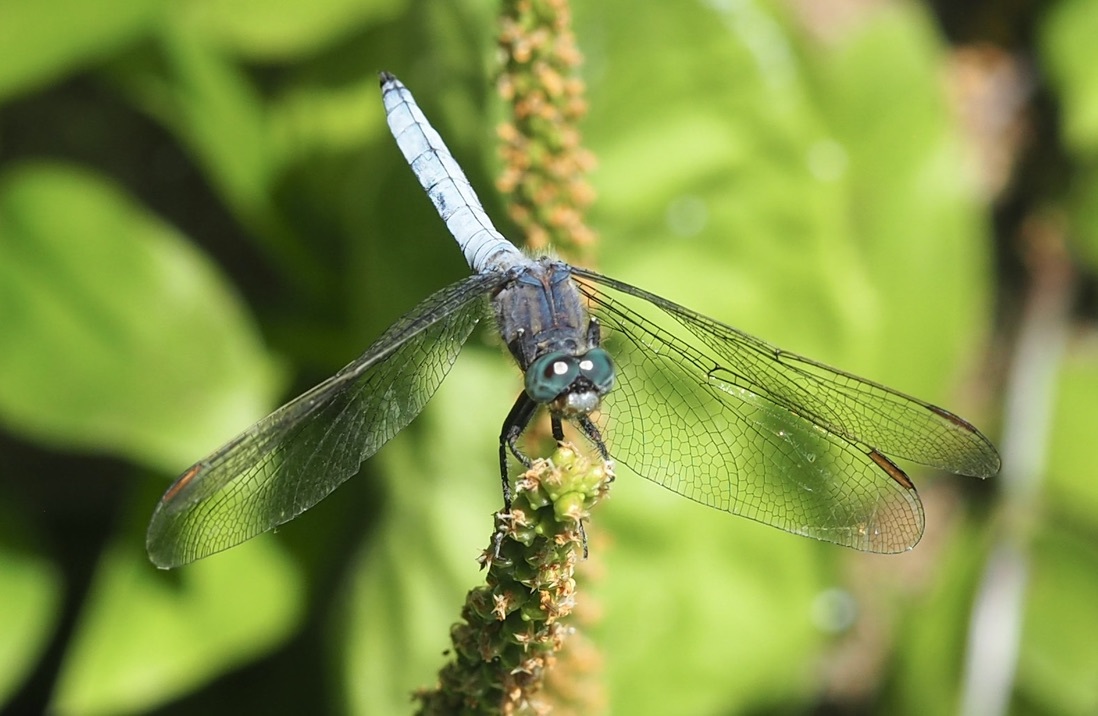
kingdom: Animalia
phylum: Arthropoda
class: Insecta
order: Odonata
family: Libellulidae
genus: Orthetrum
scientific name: Orthetrum coerulescens
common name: Keeled skimmer
